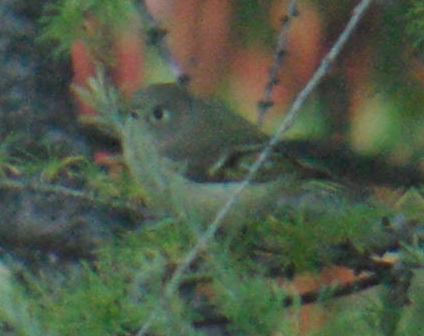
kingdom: Animalia
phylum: Chordata
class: Aves
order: Passeriformes
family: Regulidae
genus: Regulus
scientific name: Regulus calendula
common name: Ruby-crowned kinglet
